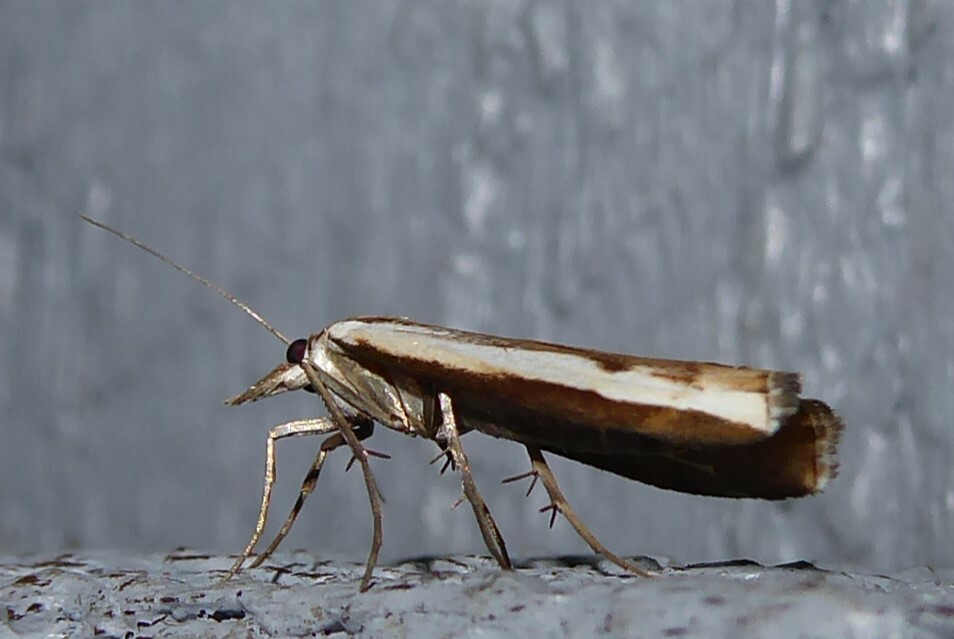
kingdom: Animalia
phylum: Arthropoda
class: Insecta
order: Lepidoptera
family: Crambidae
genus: Orocrambus
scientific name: Orocrambus flexuosellus
